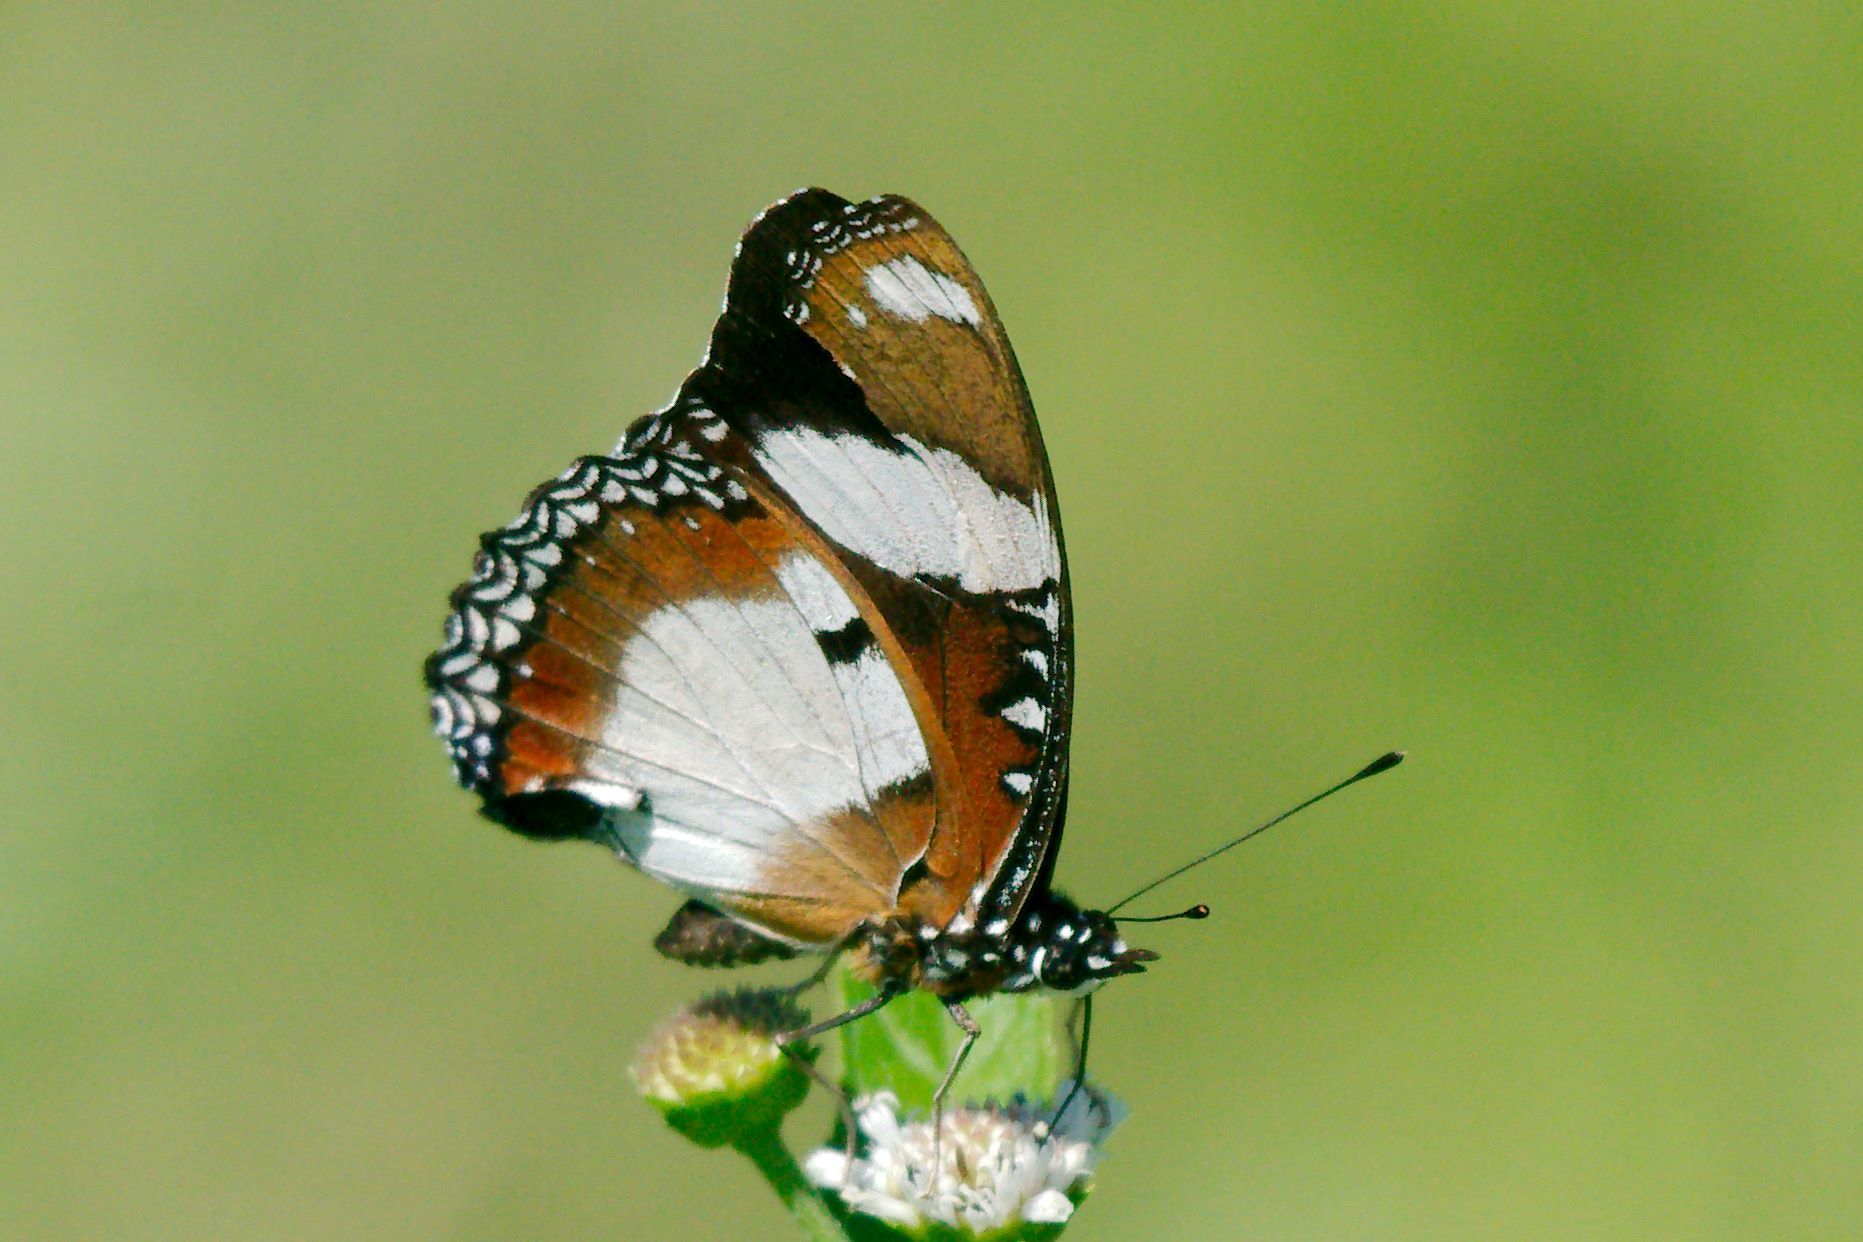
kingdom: Animalia
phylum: Arthropoda
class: Insecta
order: Lepidoptera
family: Nymphalidae
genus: Hypolimnas
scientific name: Hypolimnas misippus
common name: False plain tiger
